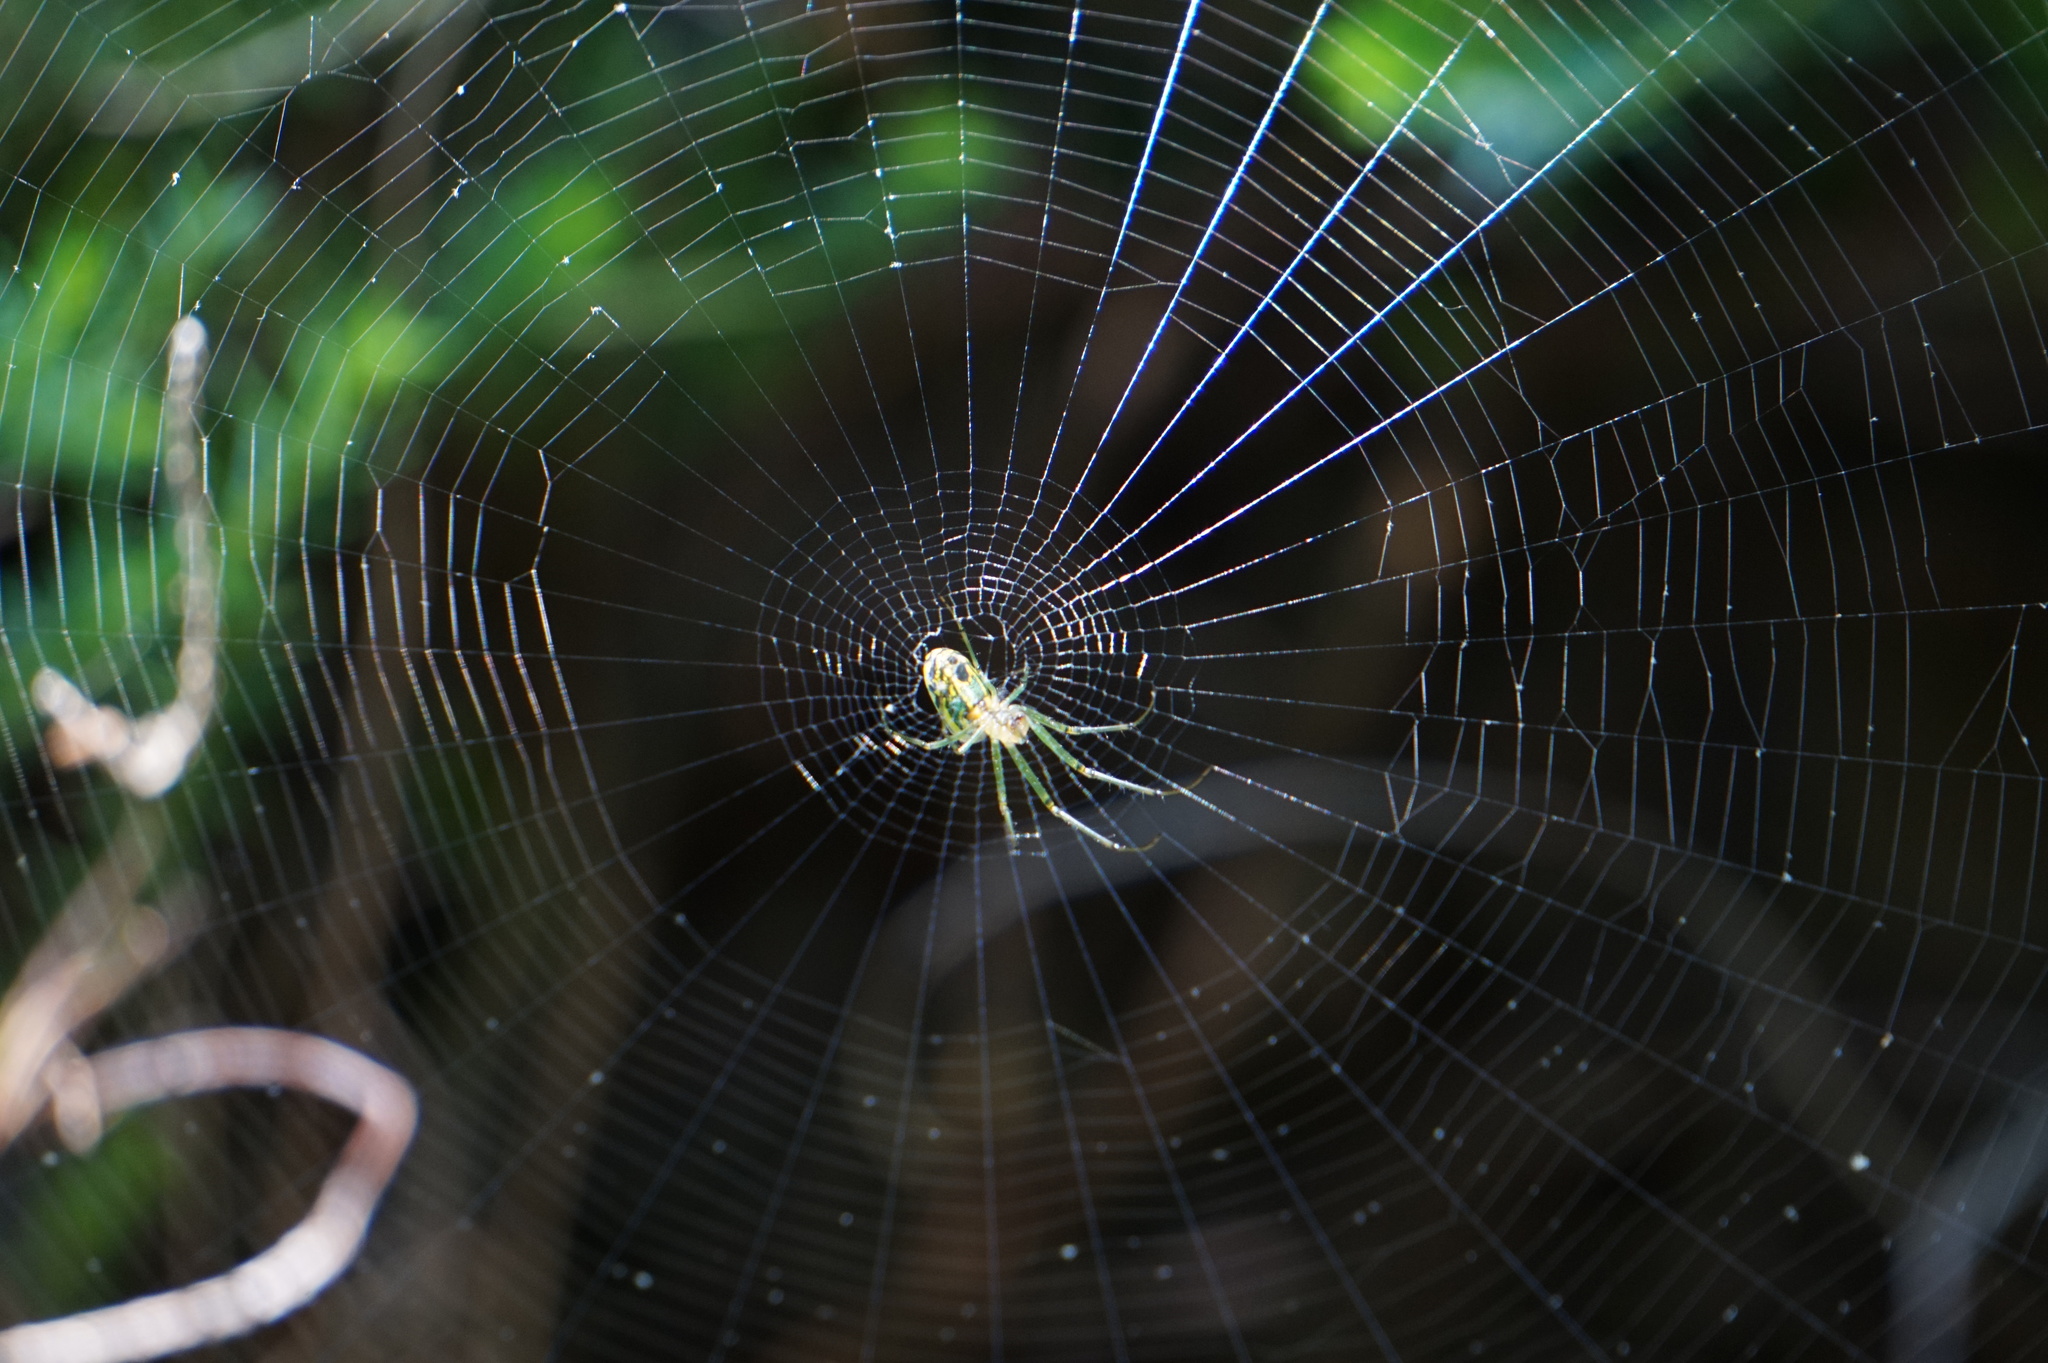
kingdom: Animalia
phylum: Arthropoda
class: Arachnida
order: Araneae
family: Tetragnathidae
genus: Leucauge
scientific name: Leucauge venusta
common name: Longjawed orb weavers
